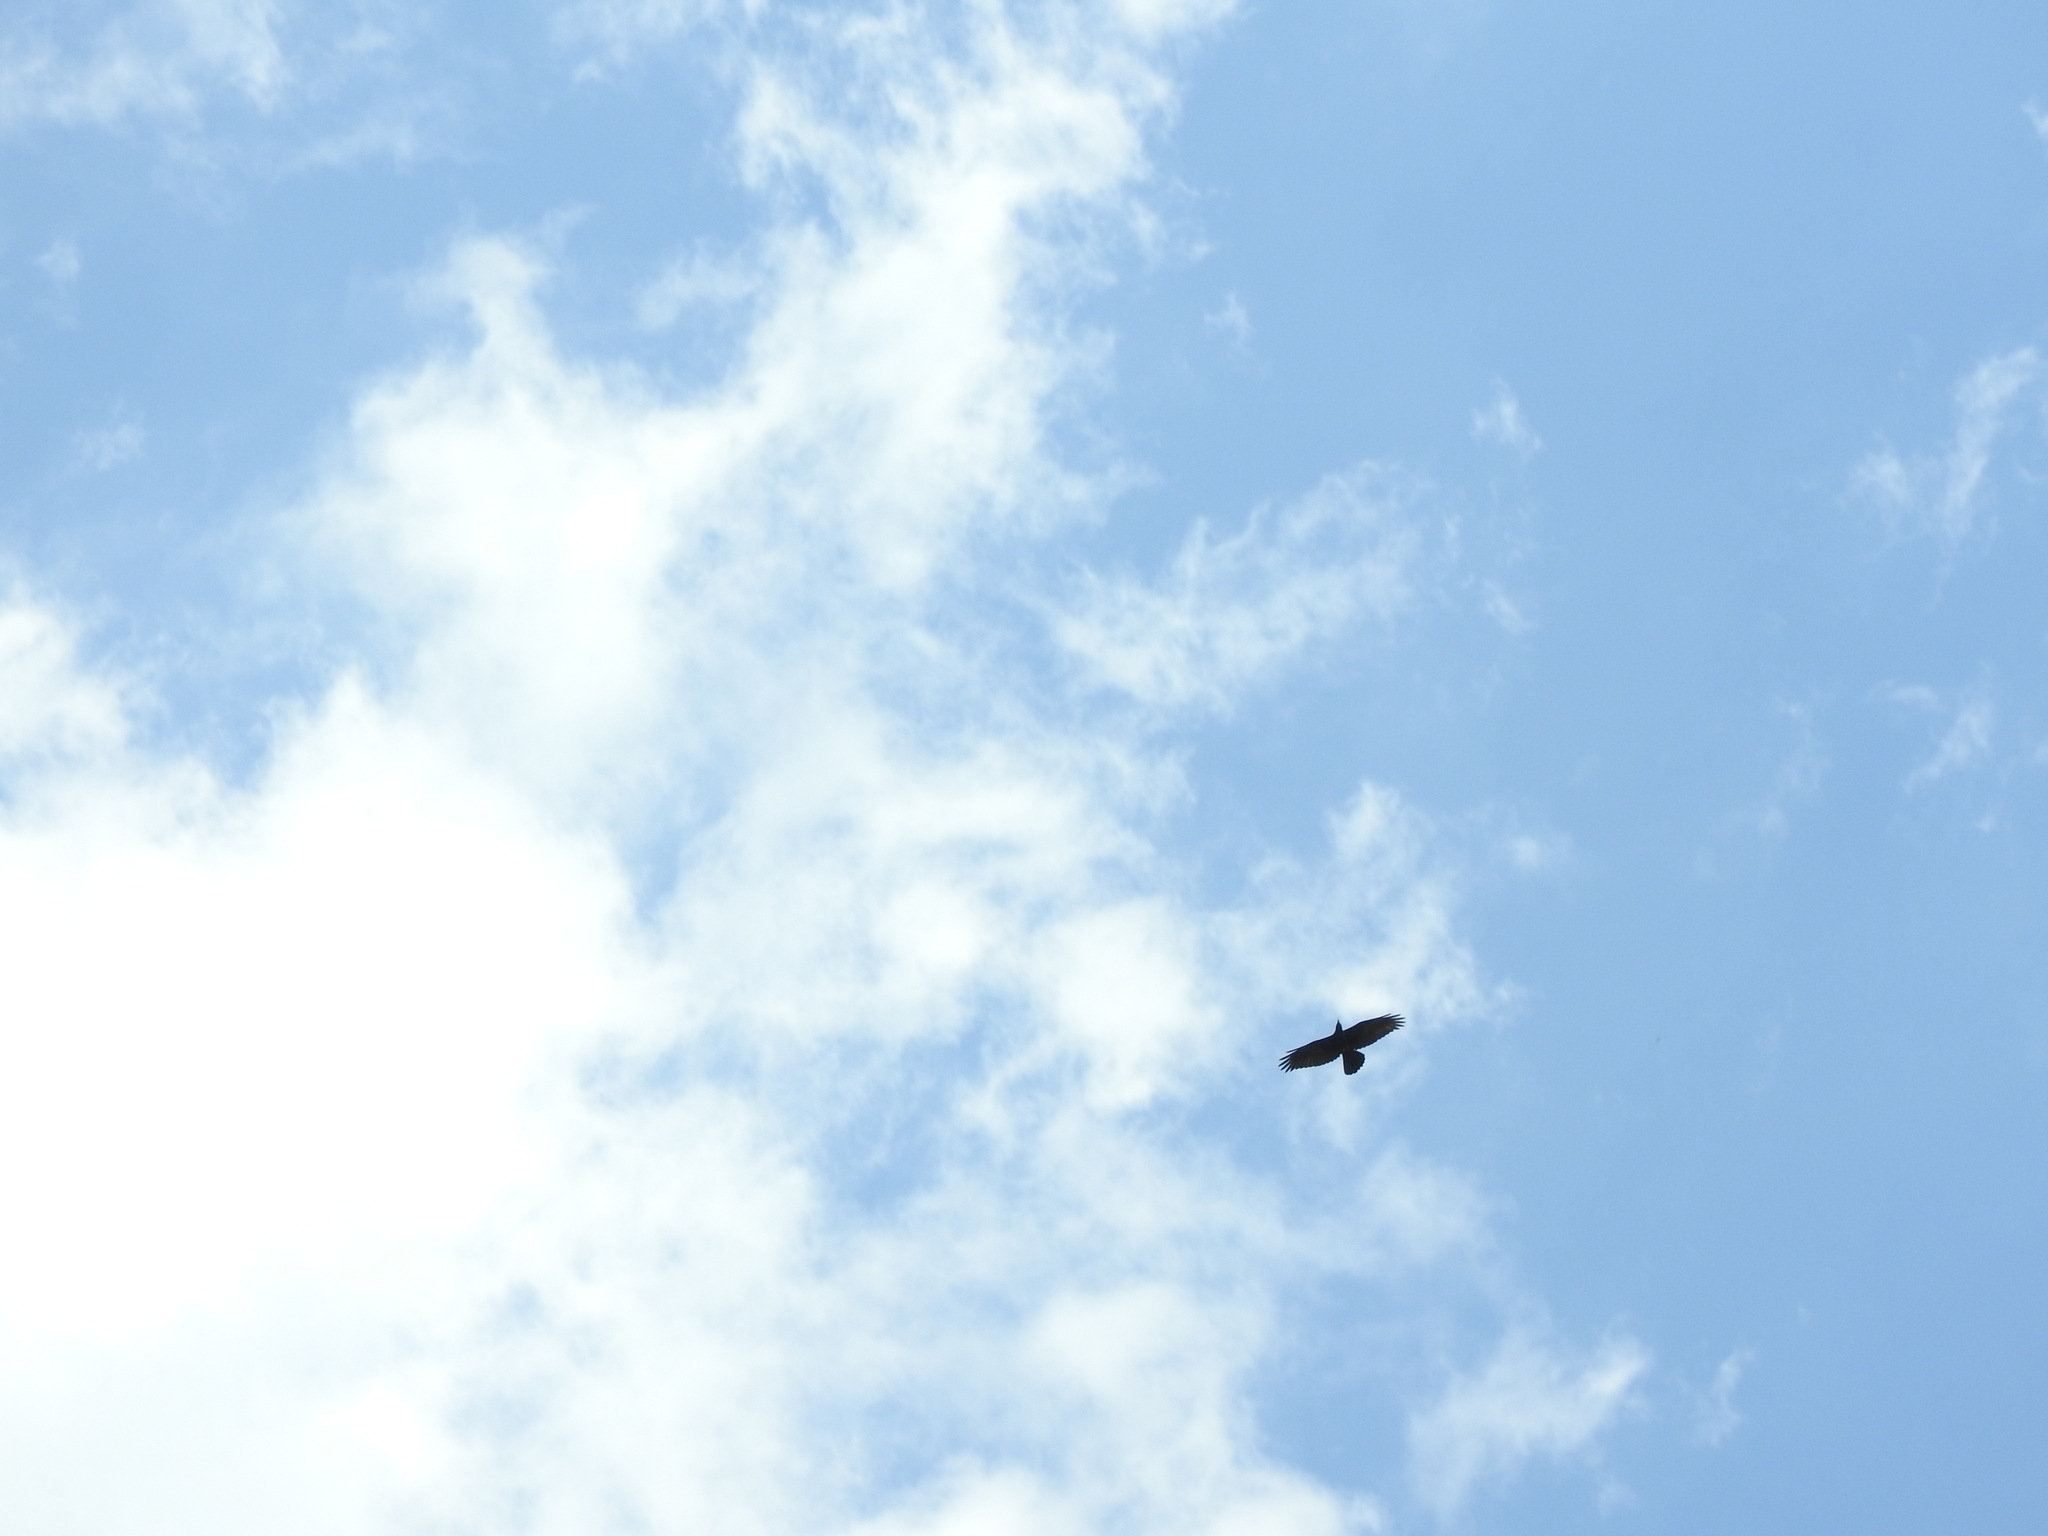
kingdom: Animalia
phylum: Chordata
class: Aves
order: Passeriformes
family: Corvidae
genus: Corvus
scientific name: Corvus corax
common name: Common raven
